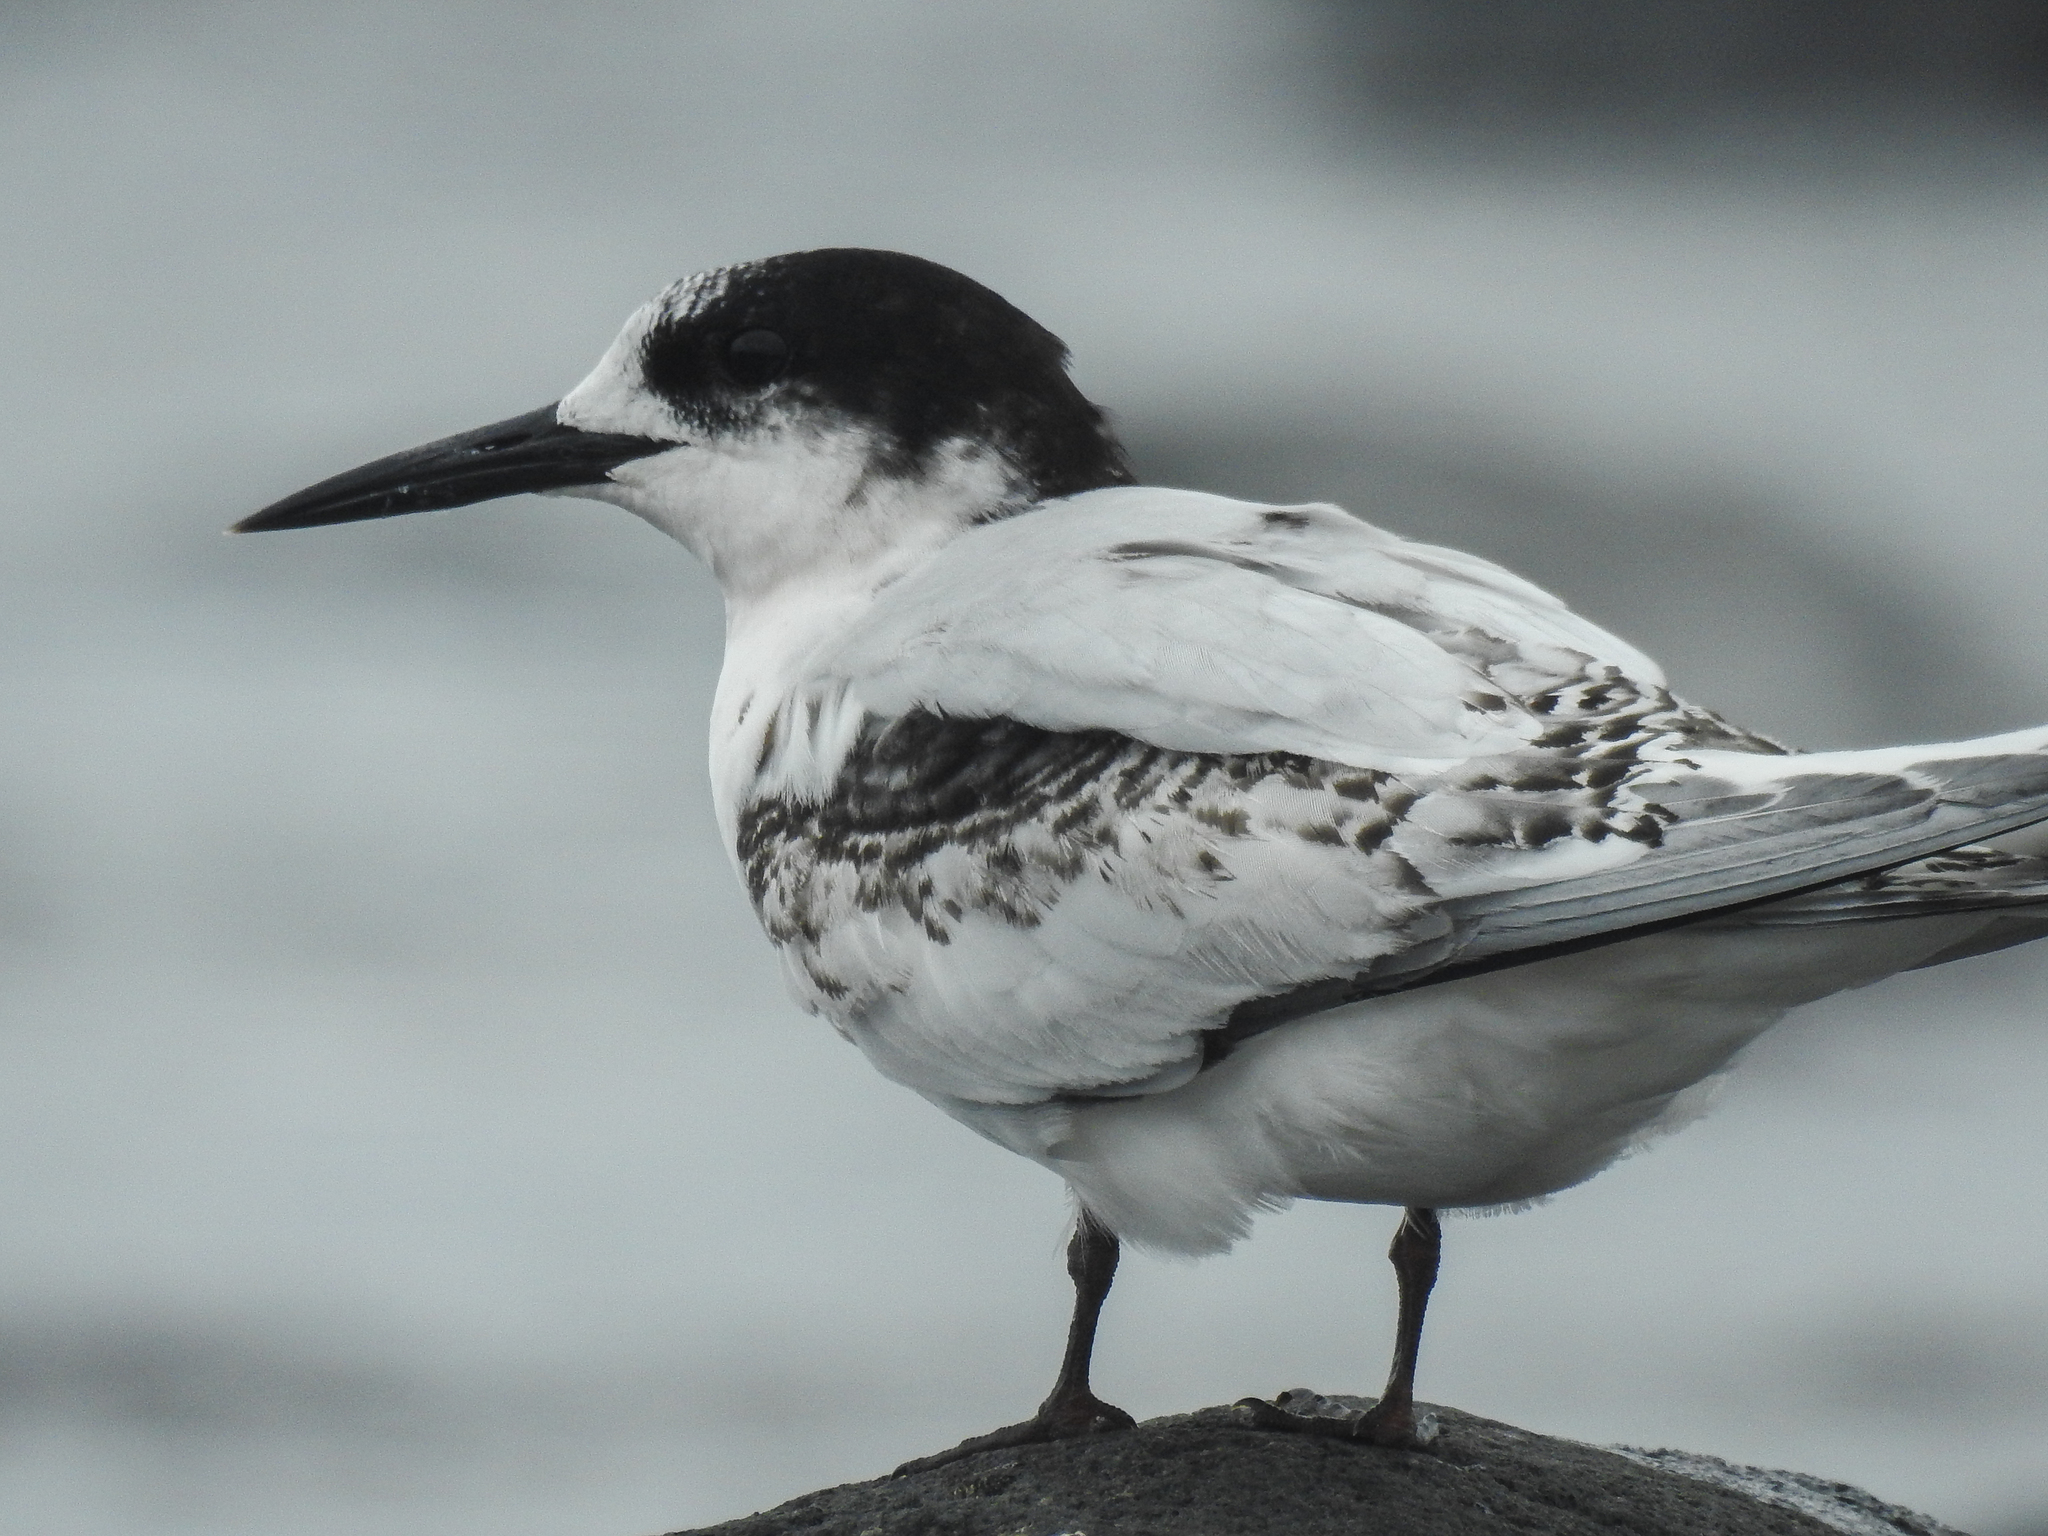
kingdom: Animalia
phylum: Chordata
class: Aves
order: Charadriiformes
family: Laridae
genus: Sterna
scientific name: Sterna striata
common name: White-fronted tern
